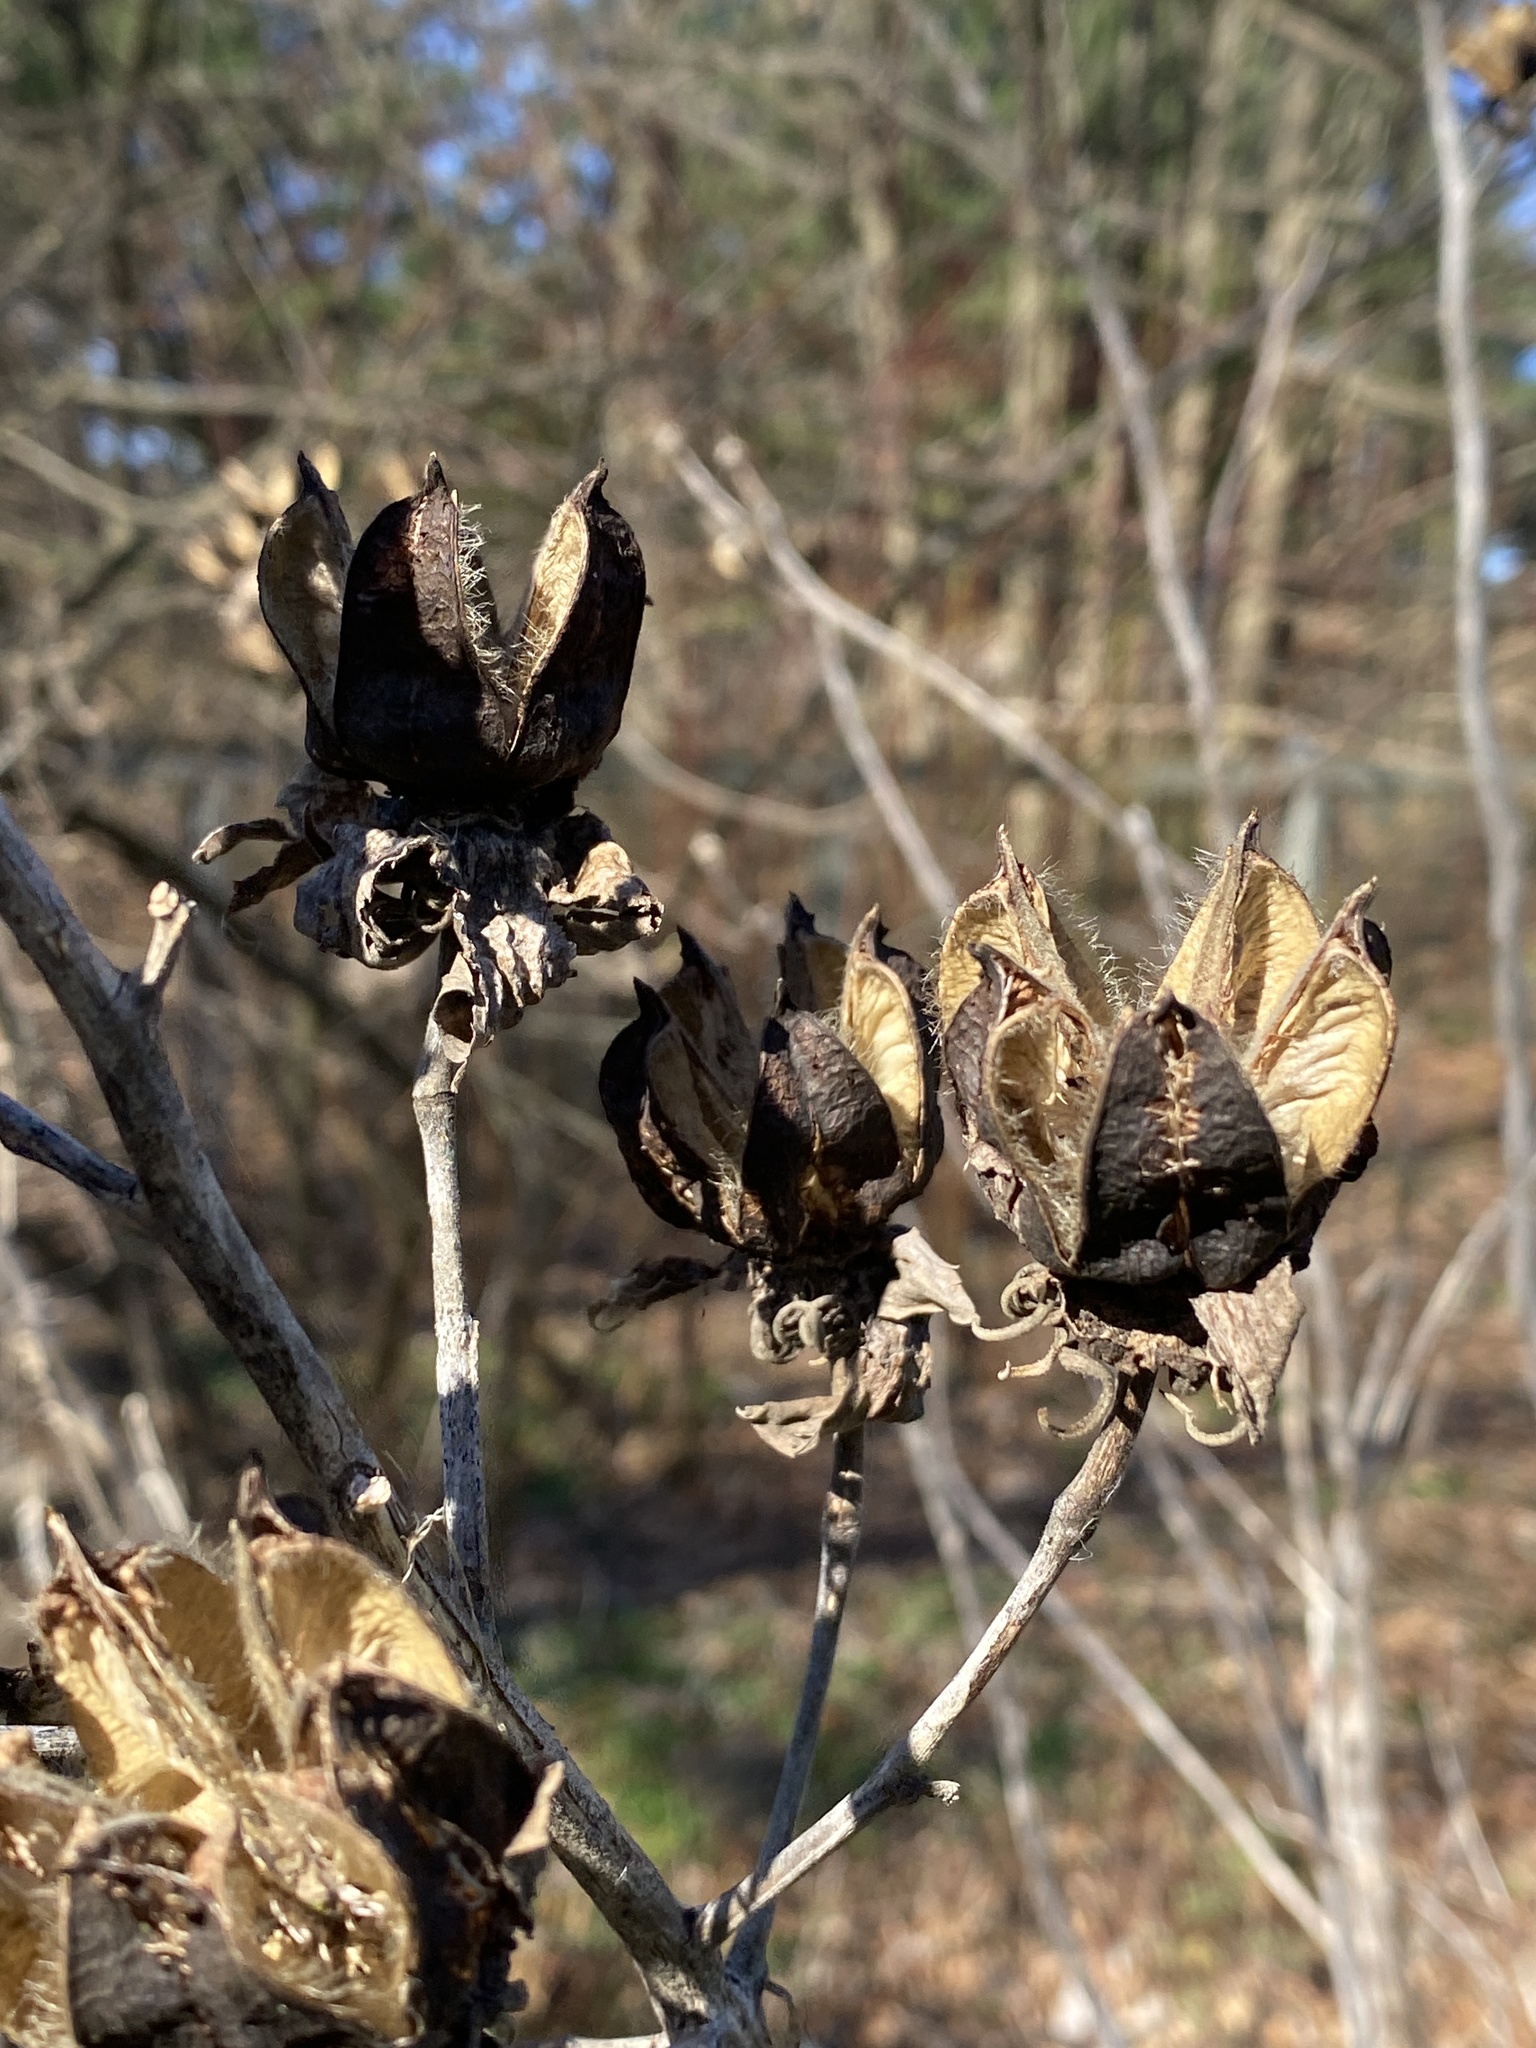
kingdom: Plantae
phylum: Tracheophyta
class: Magnoliopsida
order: Malvales
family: Malvaceae
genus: Hibiscus
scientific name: Hibiscus moscheutos
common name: Common rose-mallow
